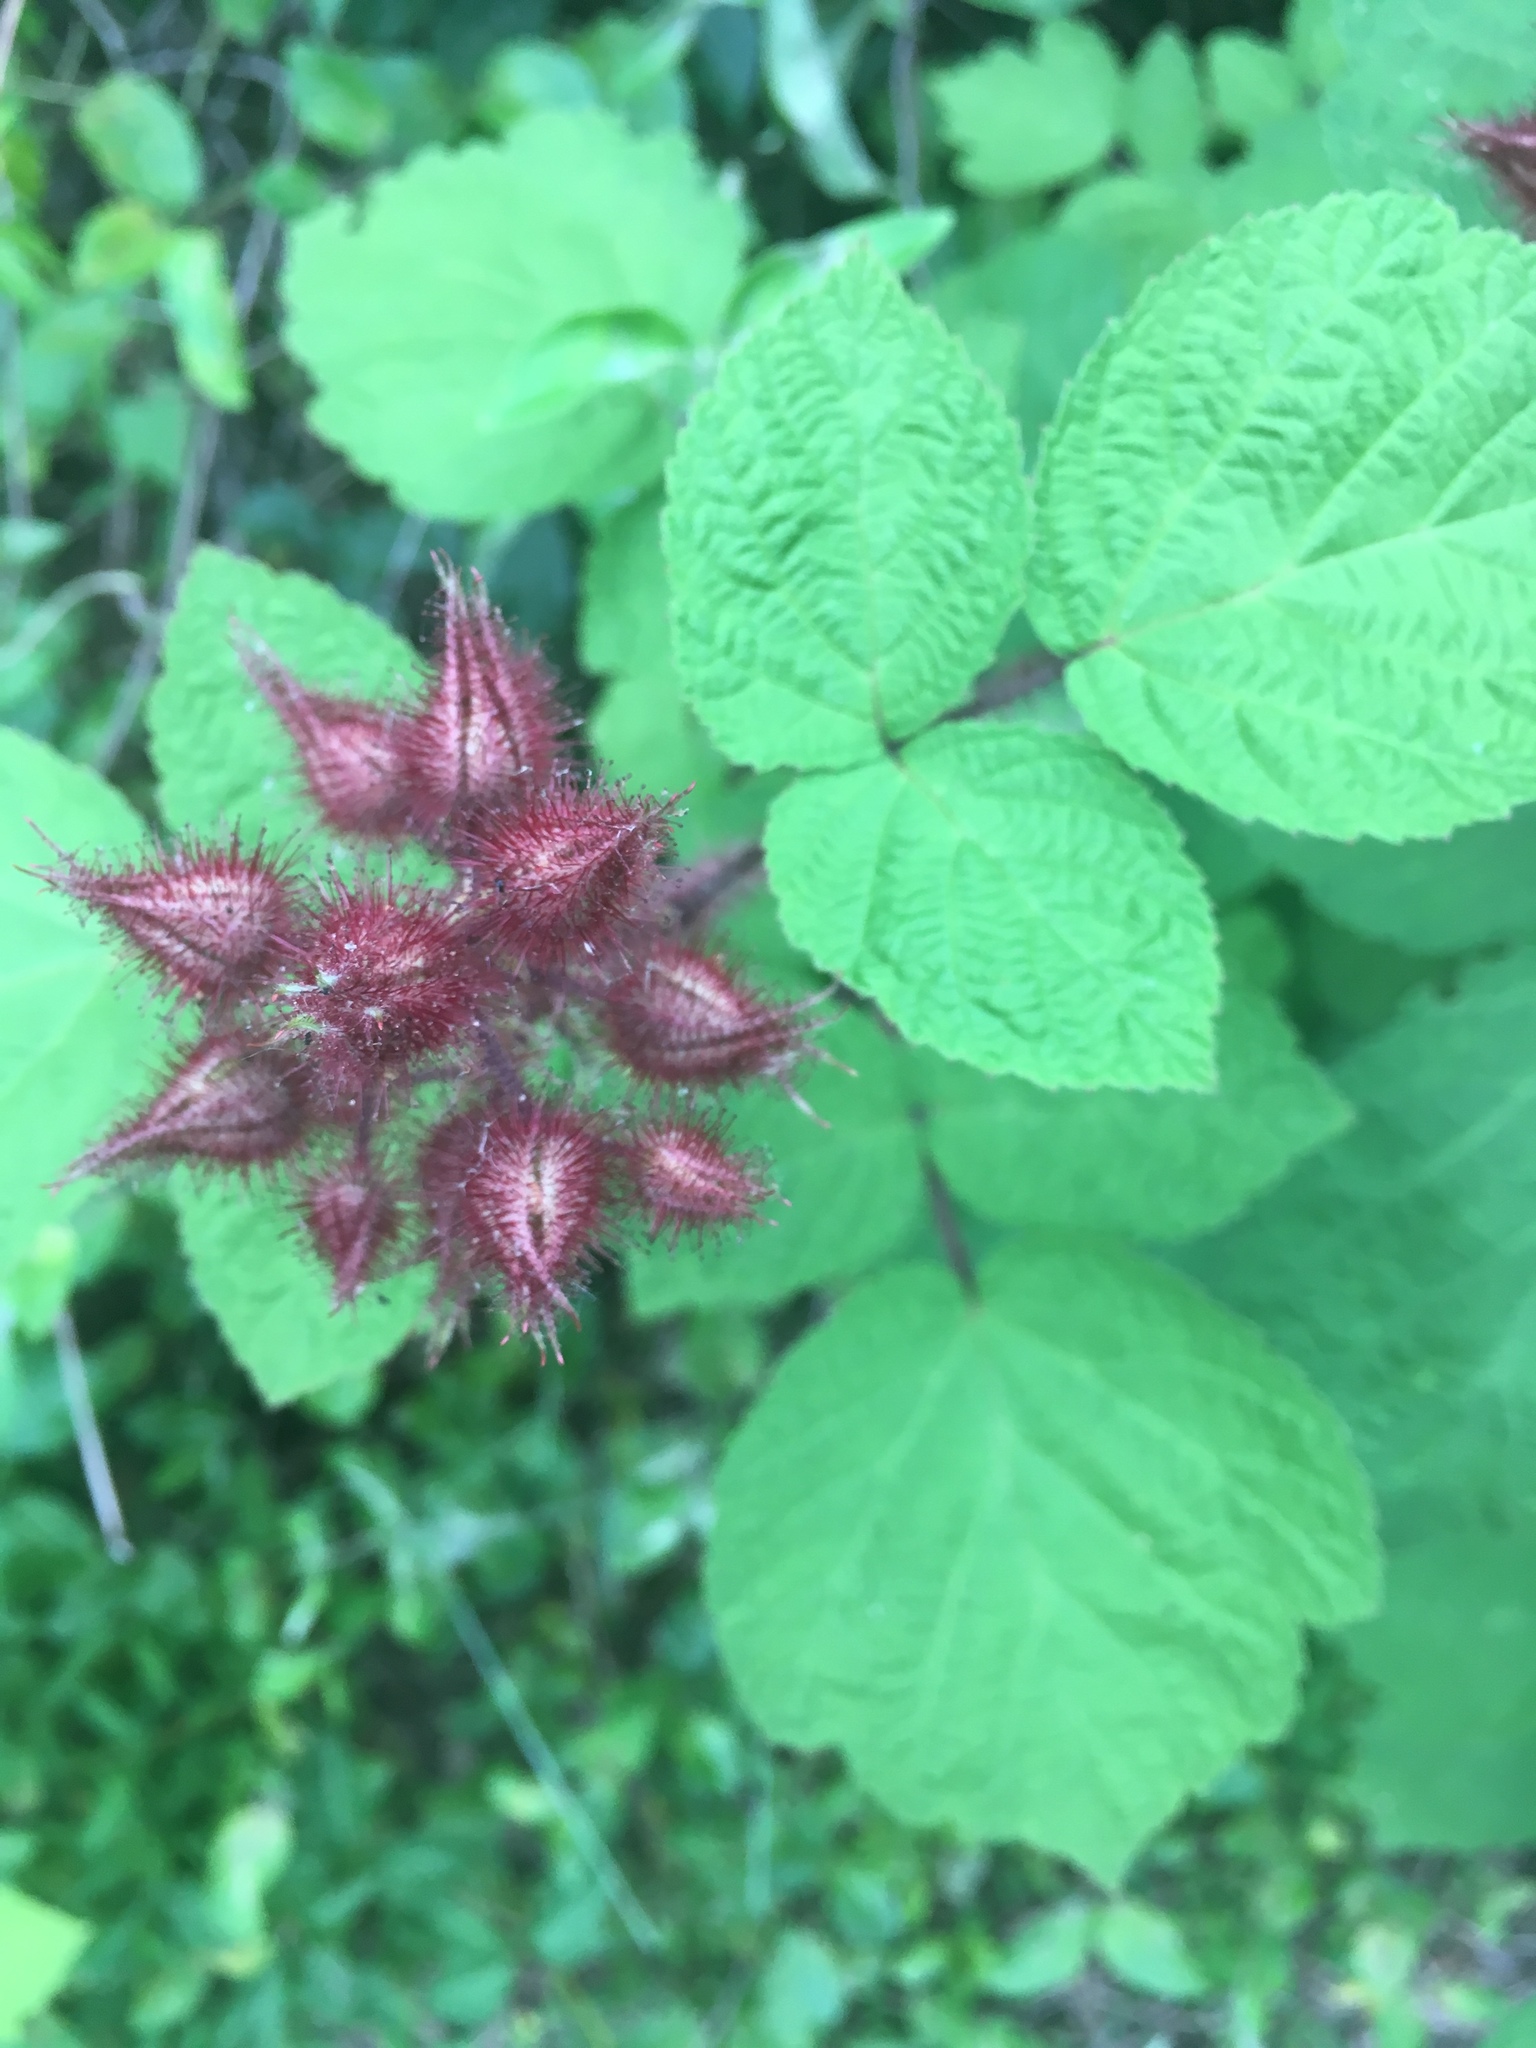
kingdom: Plantae
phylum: Tracheophyta
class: Magnoliopsida
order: Rosales
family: Rosaceae
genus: Rubus
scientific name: Rubus phoenicolasius
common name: Japanese wineberry
